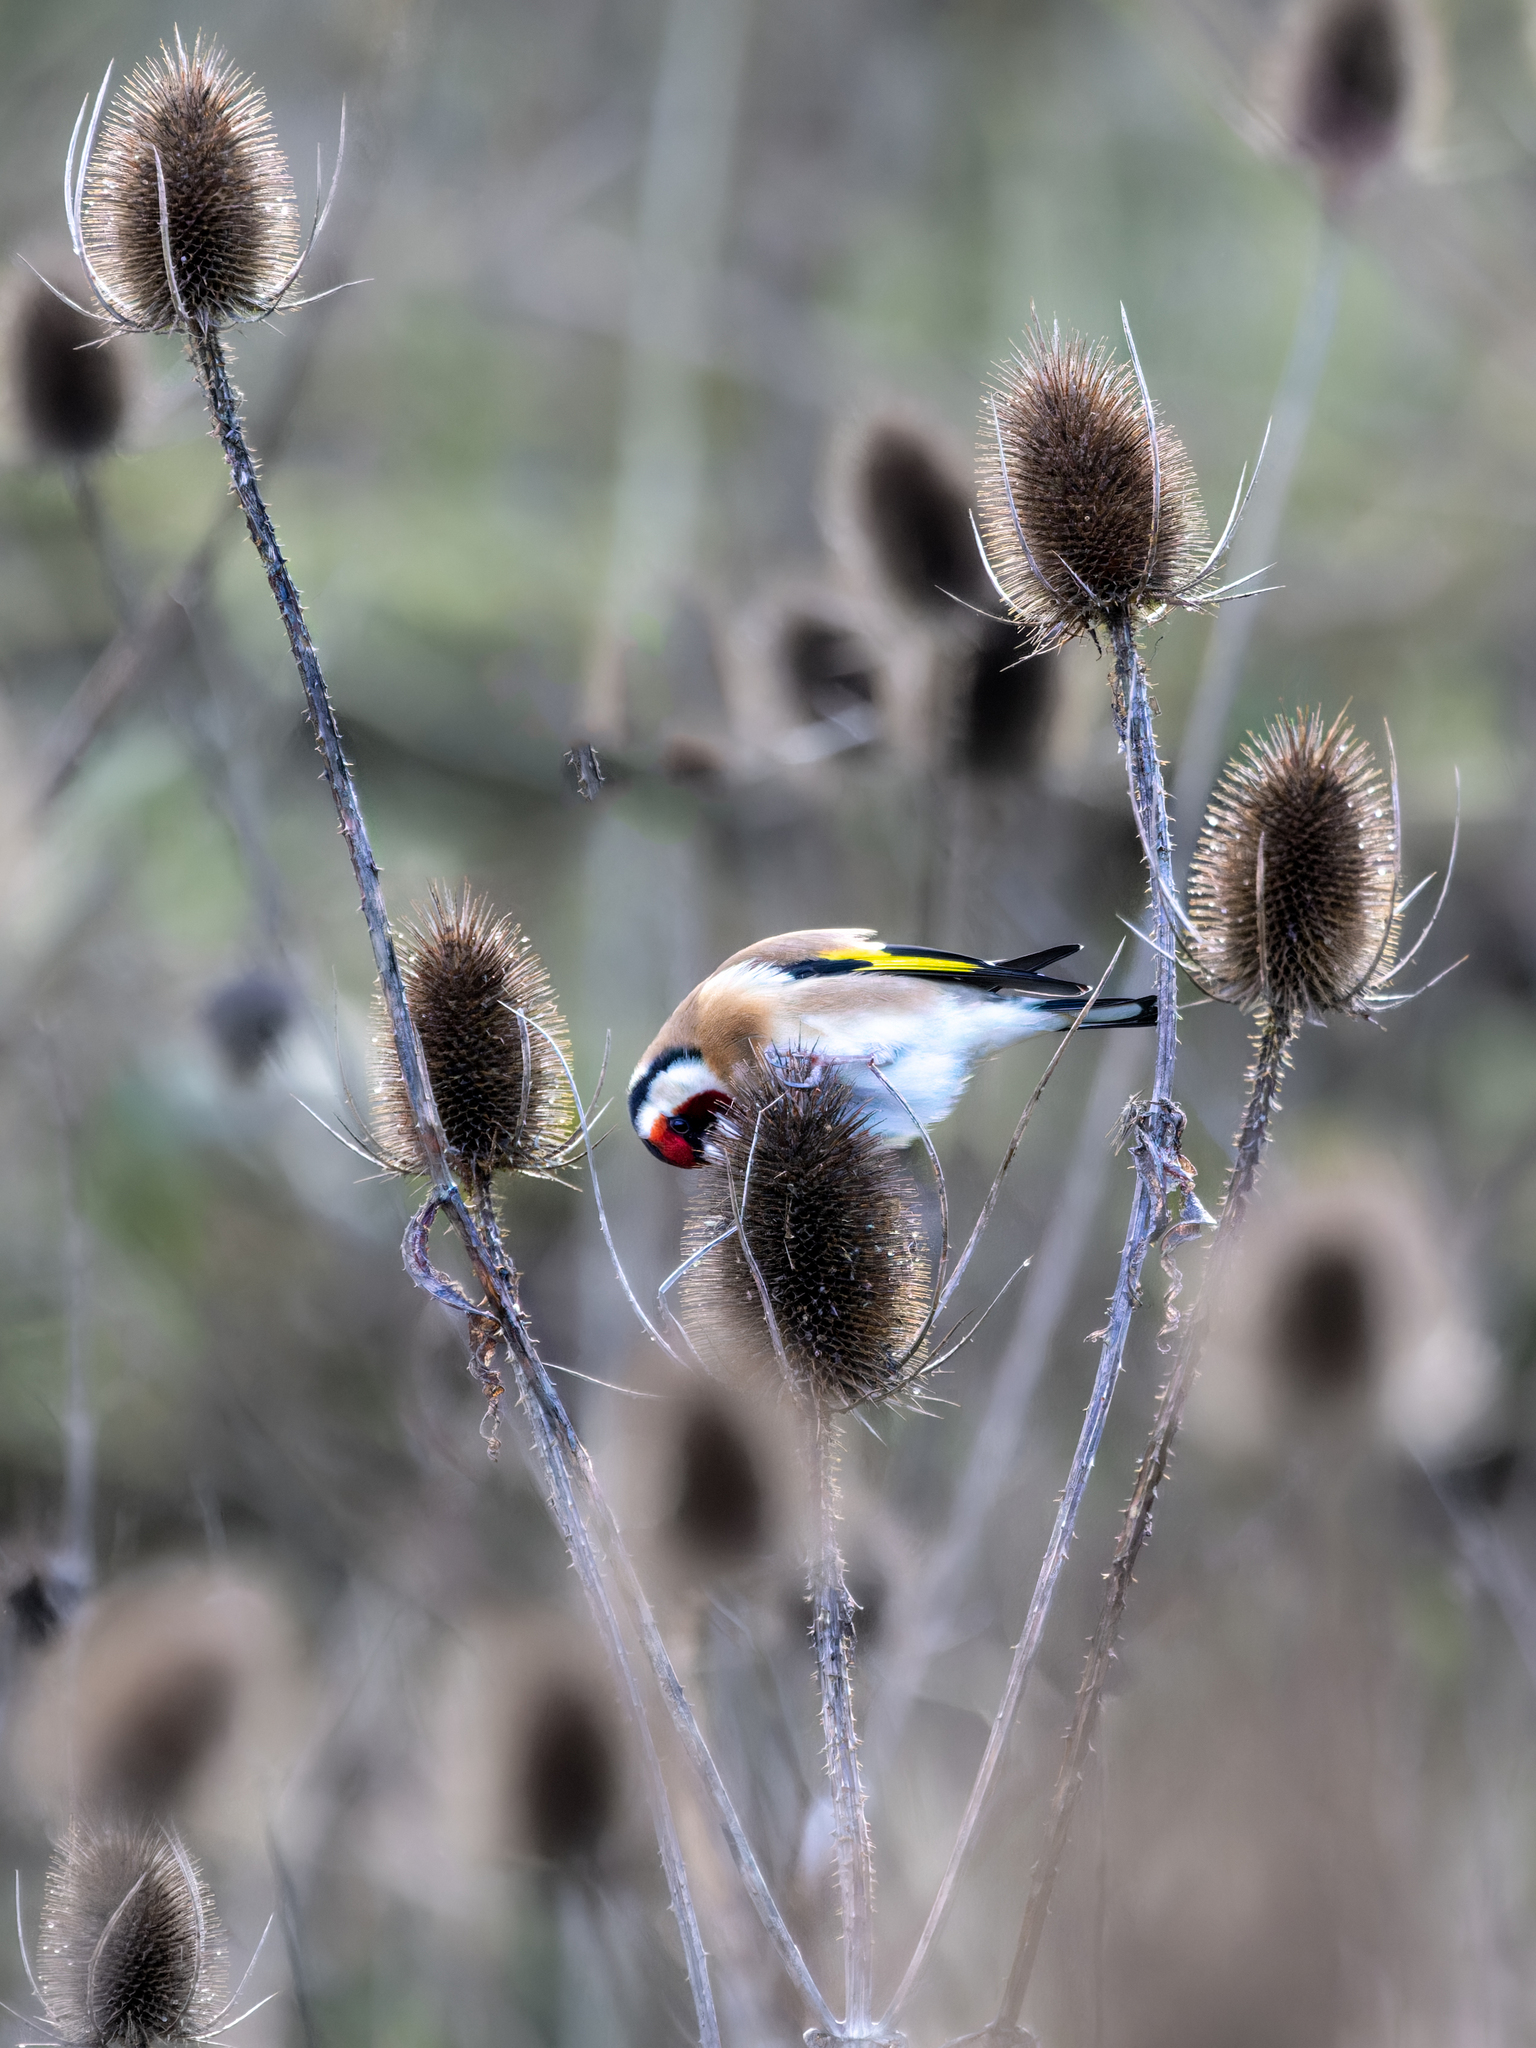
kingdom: Animalia
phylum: Chordata
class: Aves
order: Passeriformes
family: Fringillidae
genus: Carduelis
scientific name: Carduelis carduelis
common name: European goldfinch
